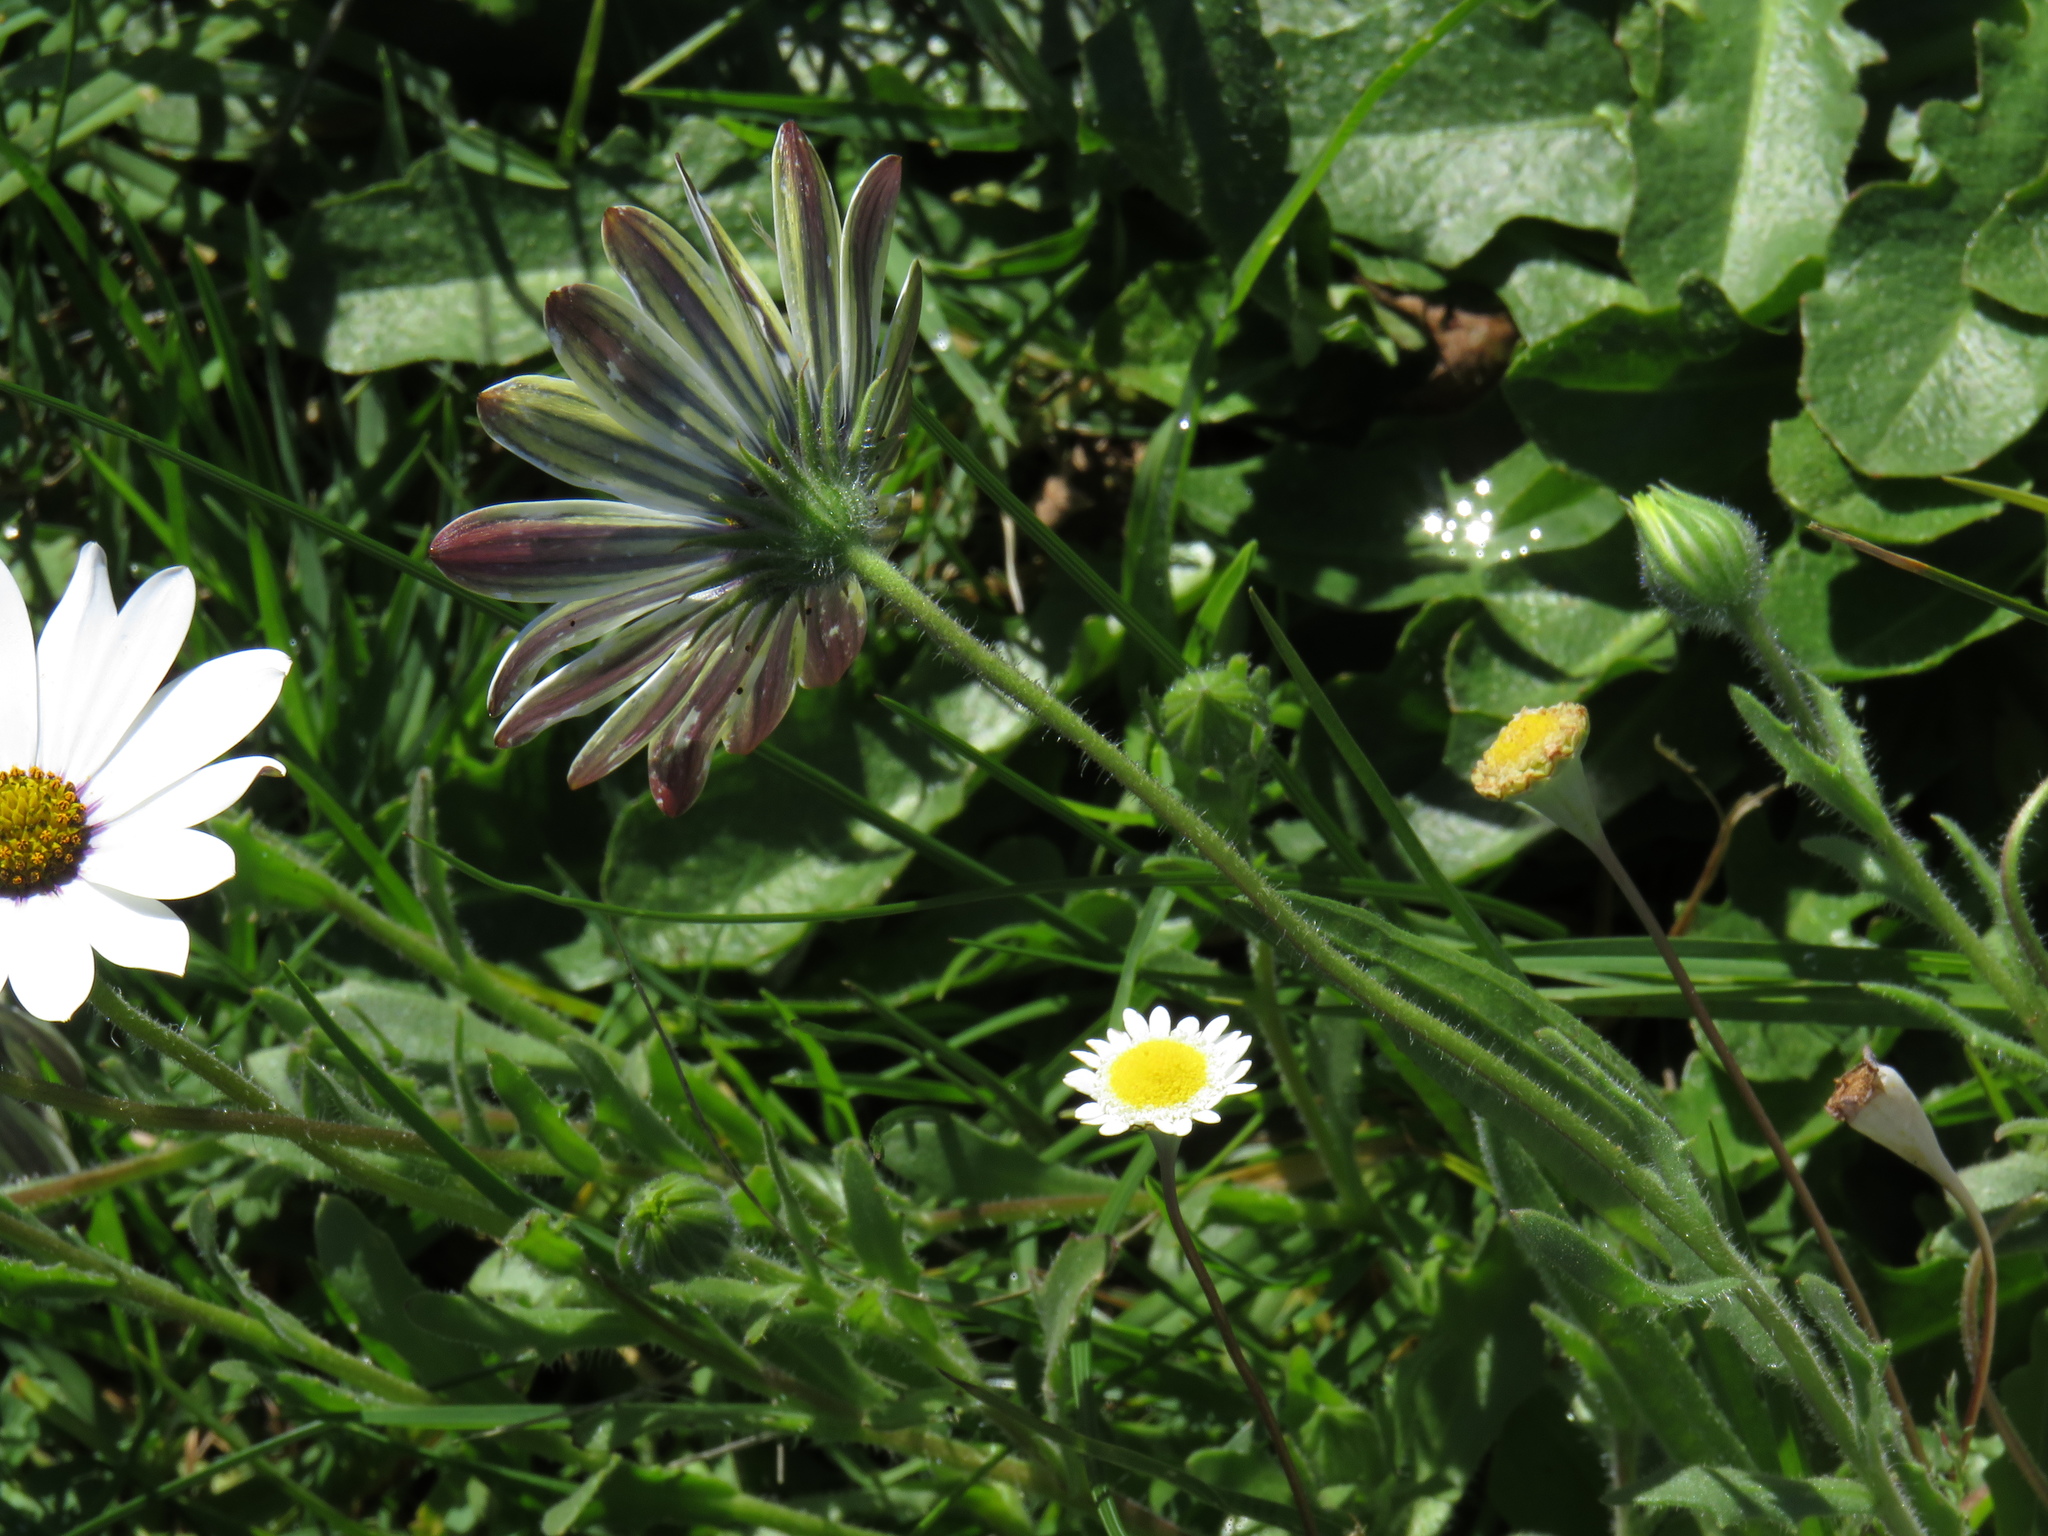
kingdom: Plantae
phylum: Tracheophyta
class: Magnoliopsida
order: Asterales
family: Asteraceae
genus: Dimorphotheca
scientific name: Dimorphotheca pluvialis
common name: Weather prophet
